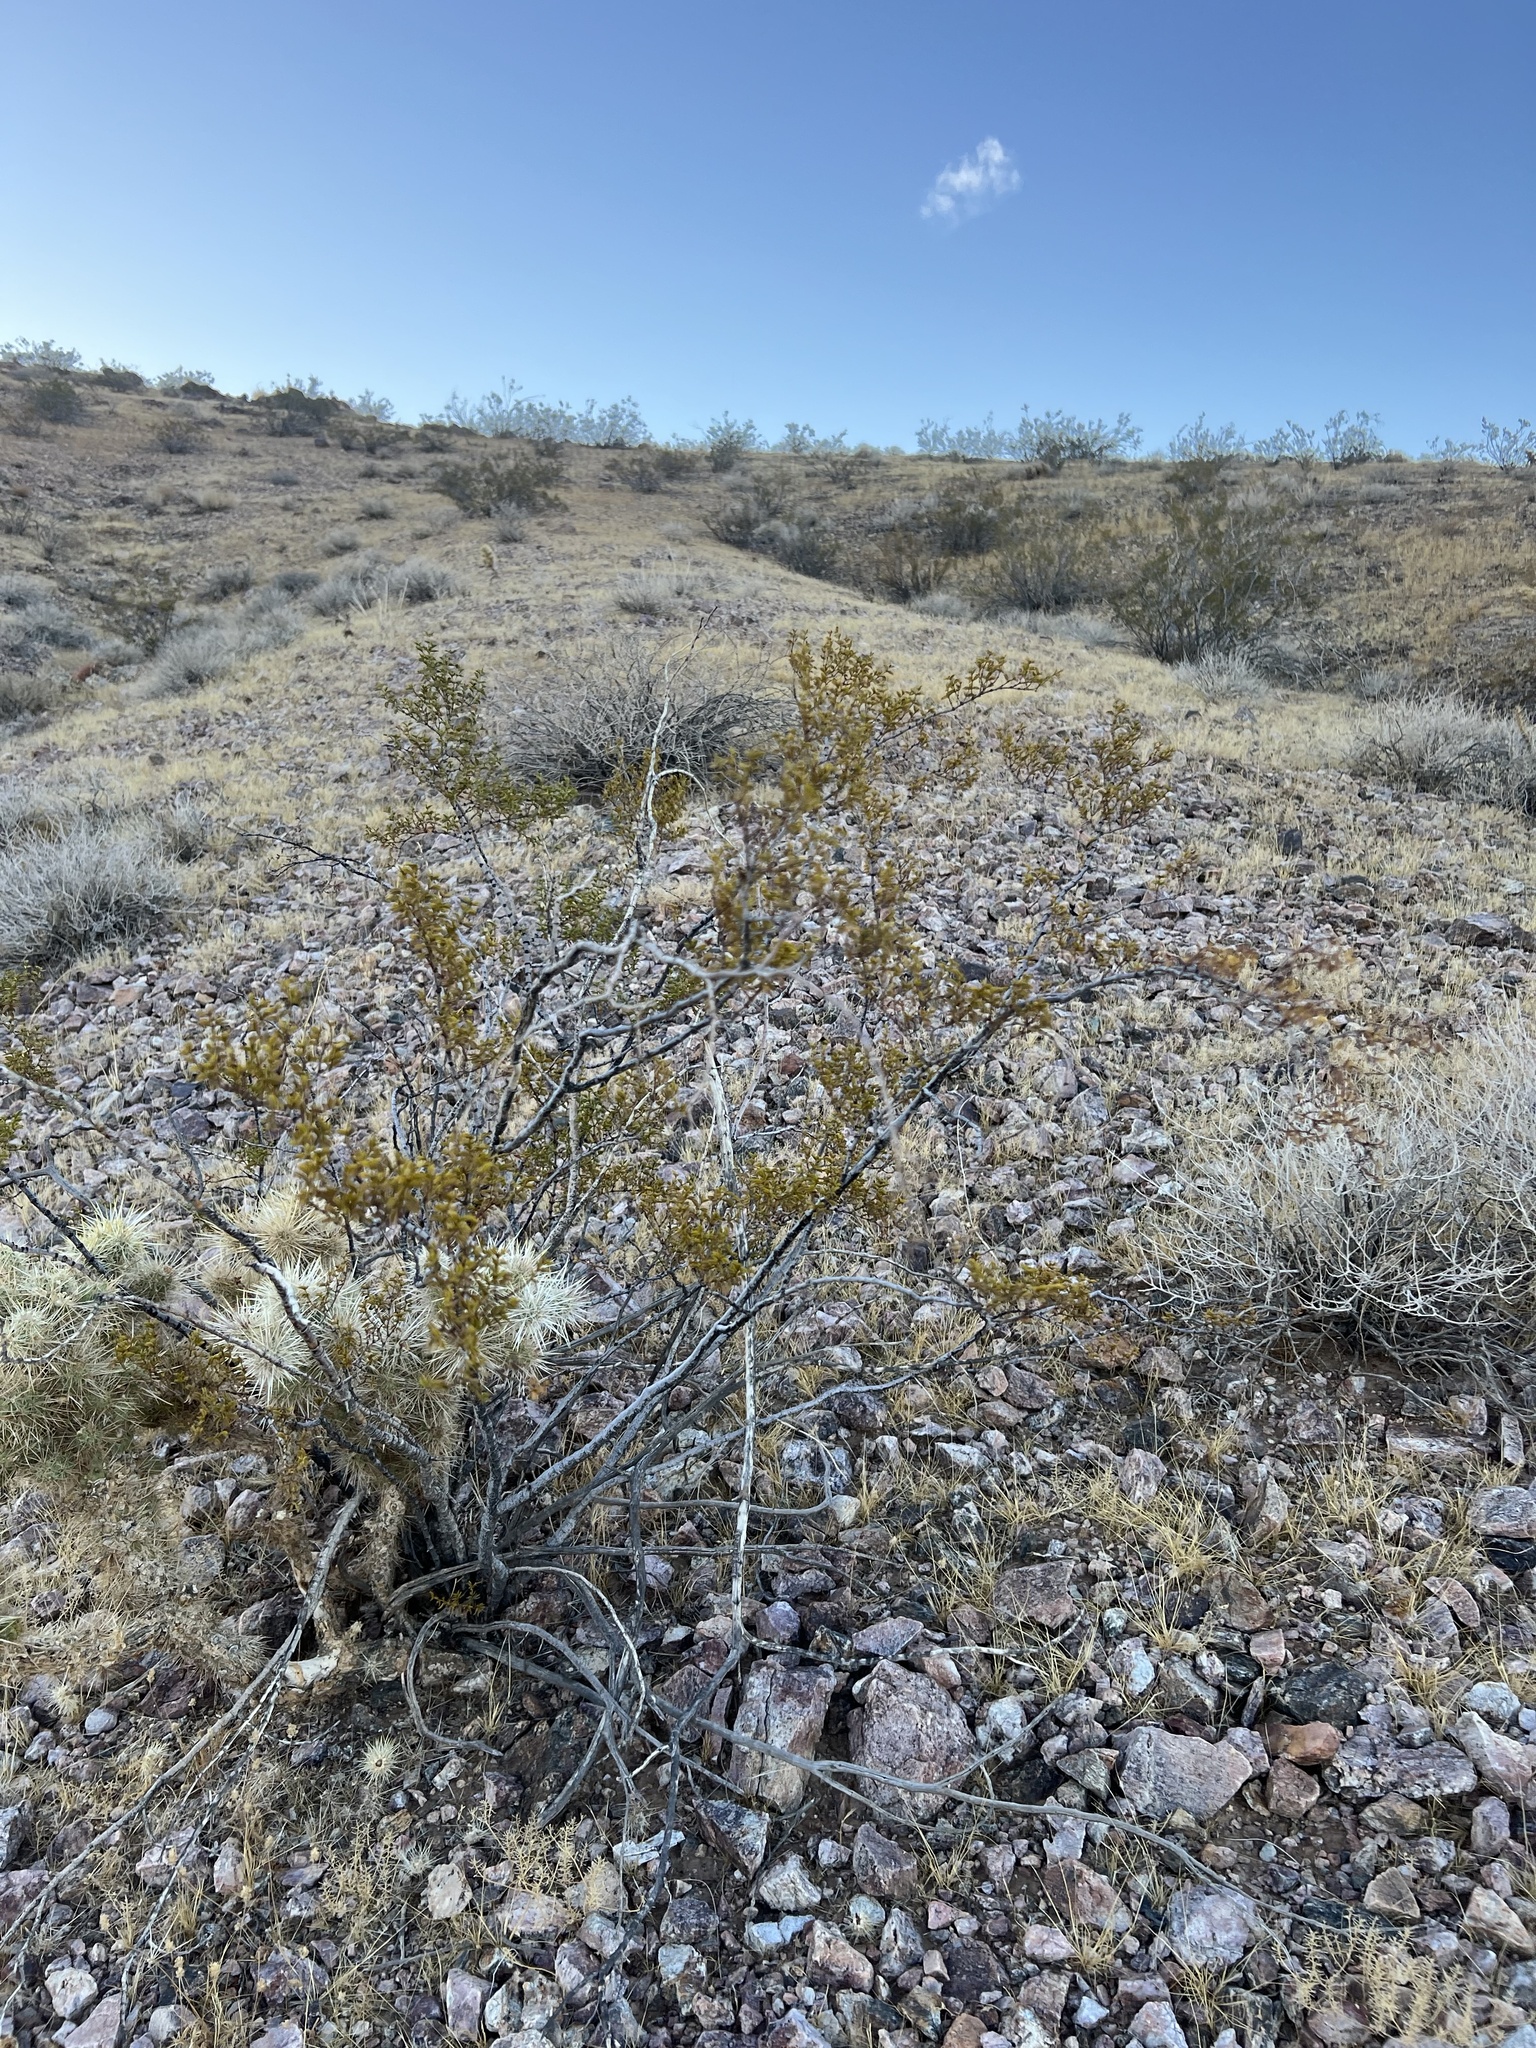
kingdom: Plantae
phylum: Tracheophyta
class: Magnoliopsida
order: Zygophyllales
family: Zygophyllaceae
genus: Larrea
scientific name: Larrea tridentata
